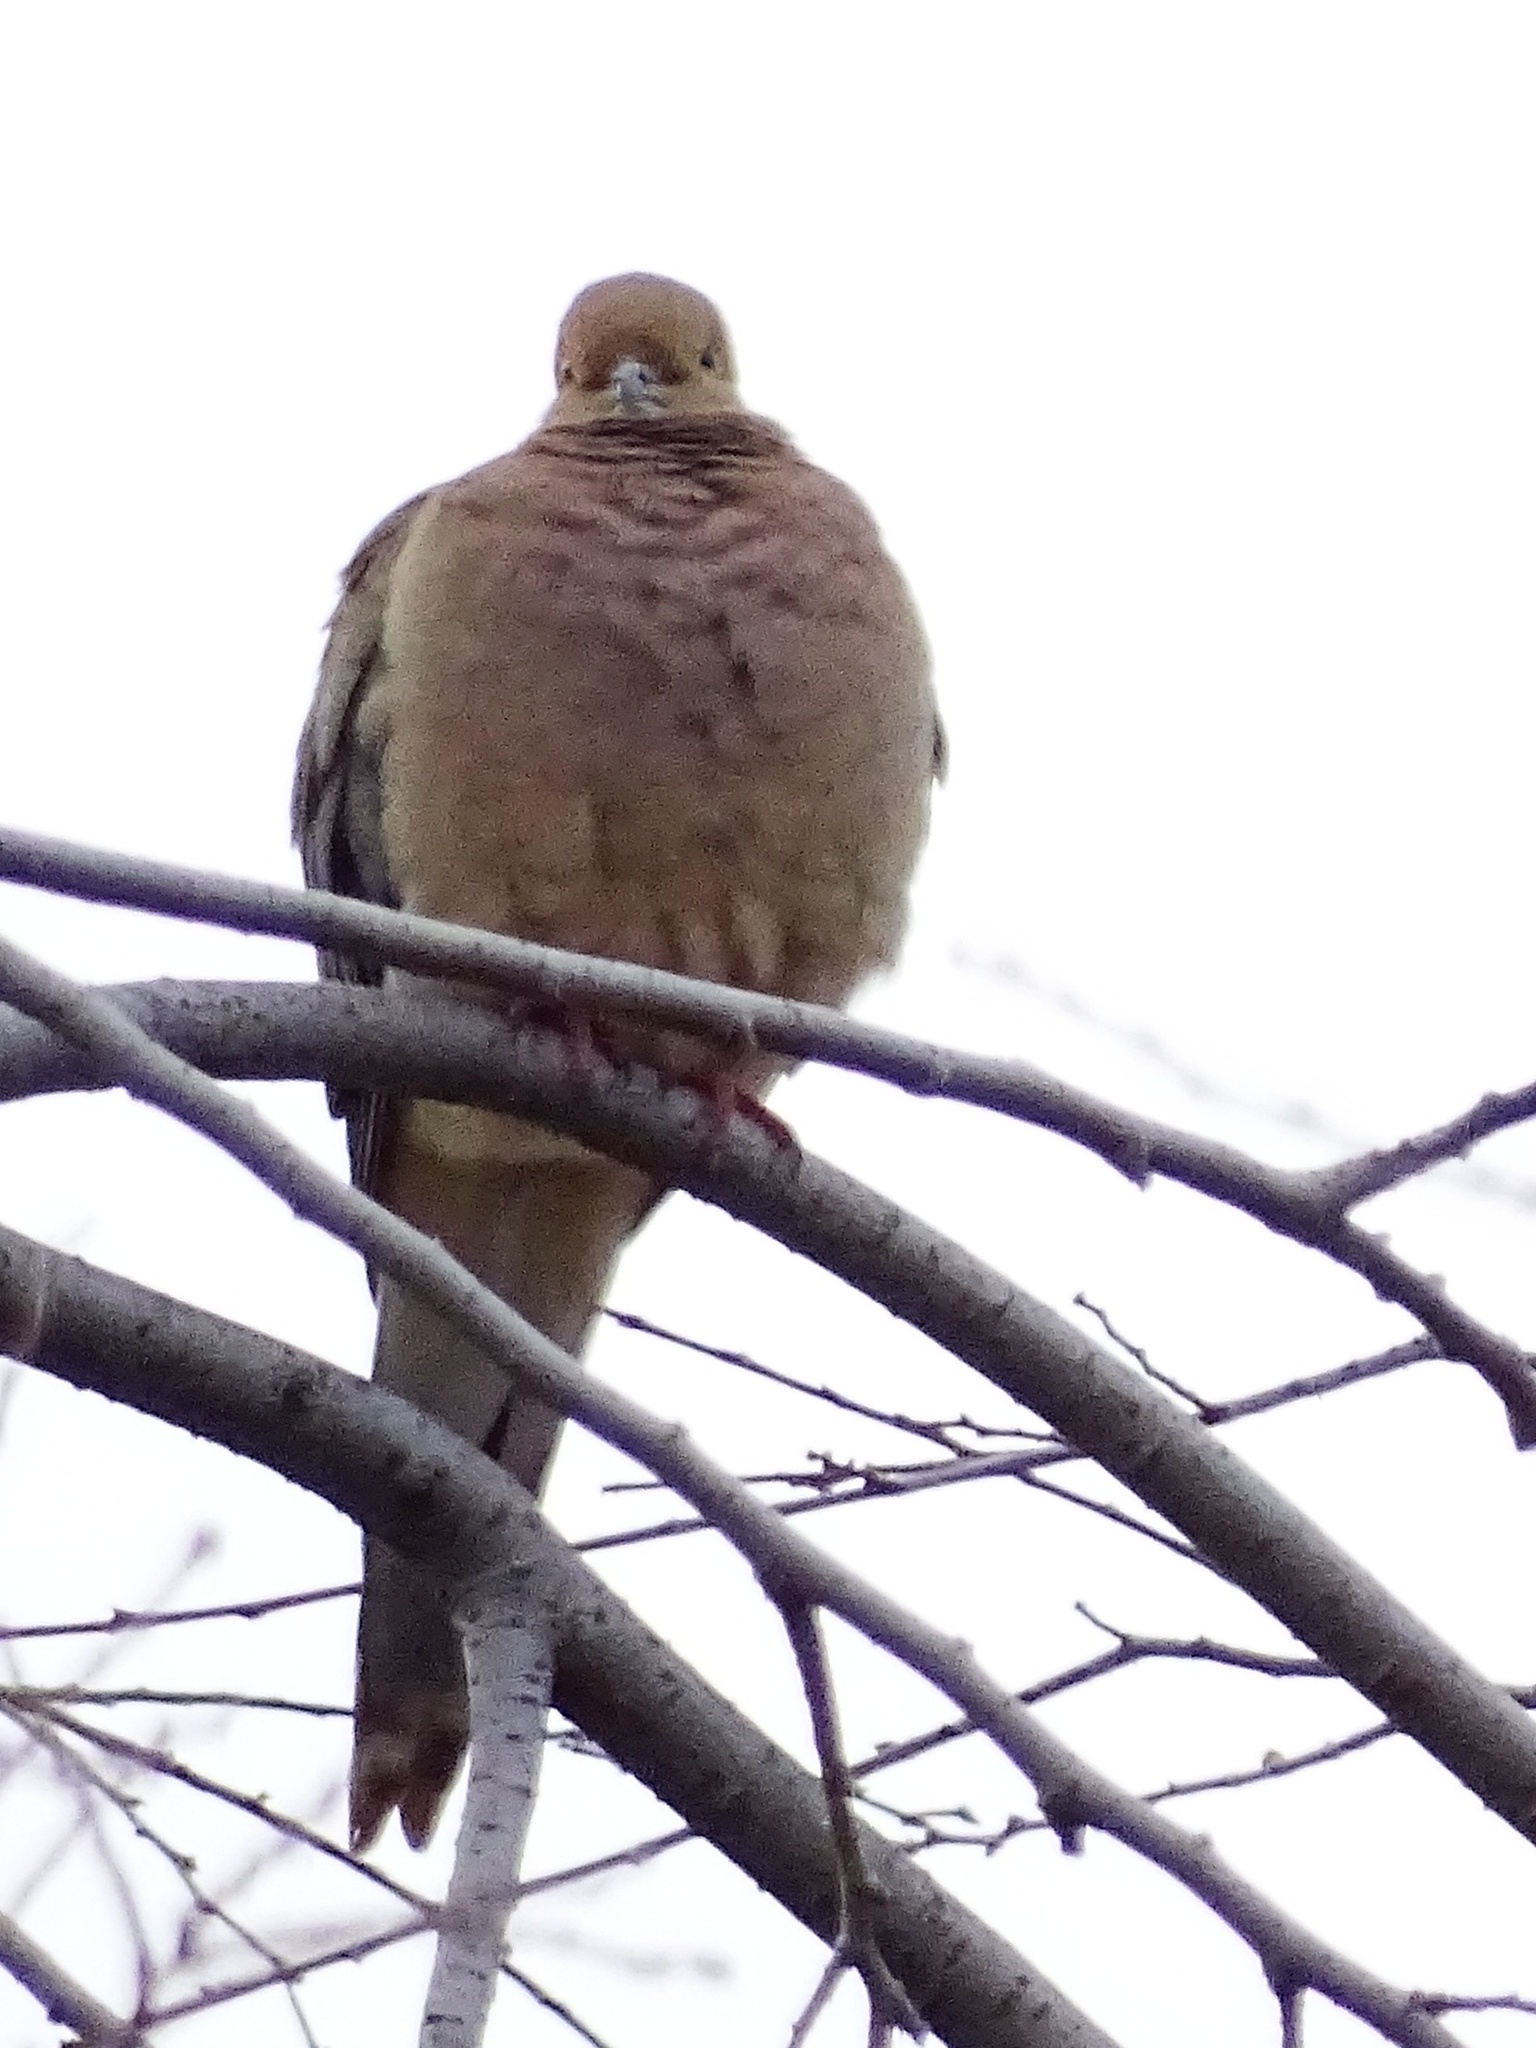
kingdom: Animalia
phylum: Chordata
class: Aves
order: Columbiformes
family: Columbidae
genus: Zenaida
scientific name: Zenaida macroura
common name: Mourning dove
